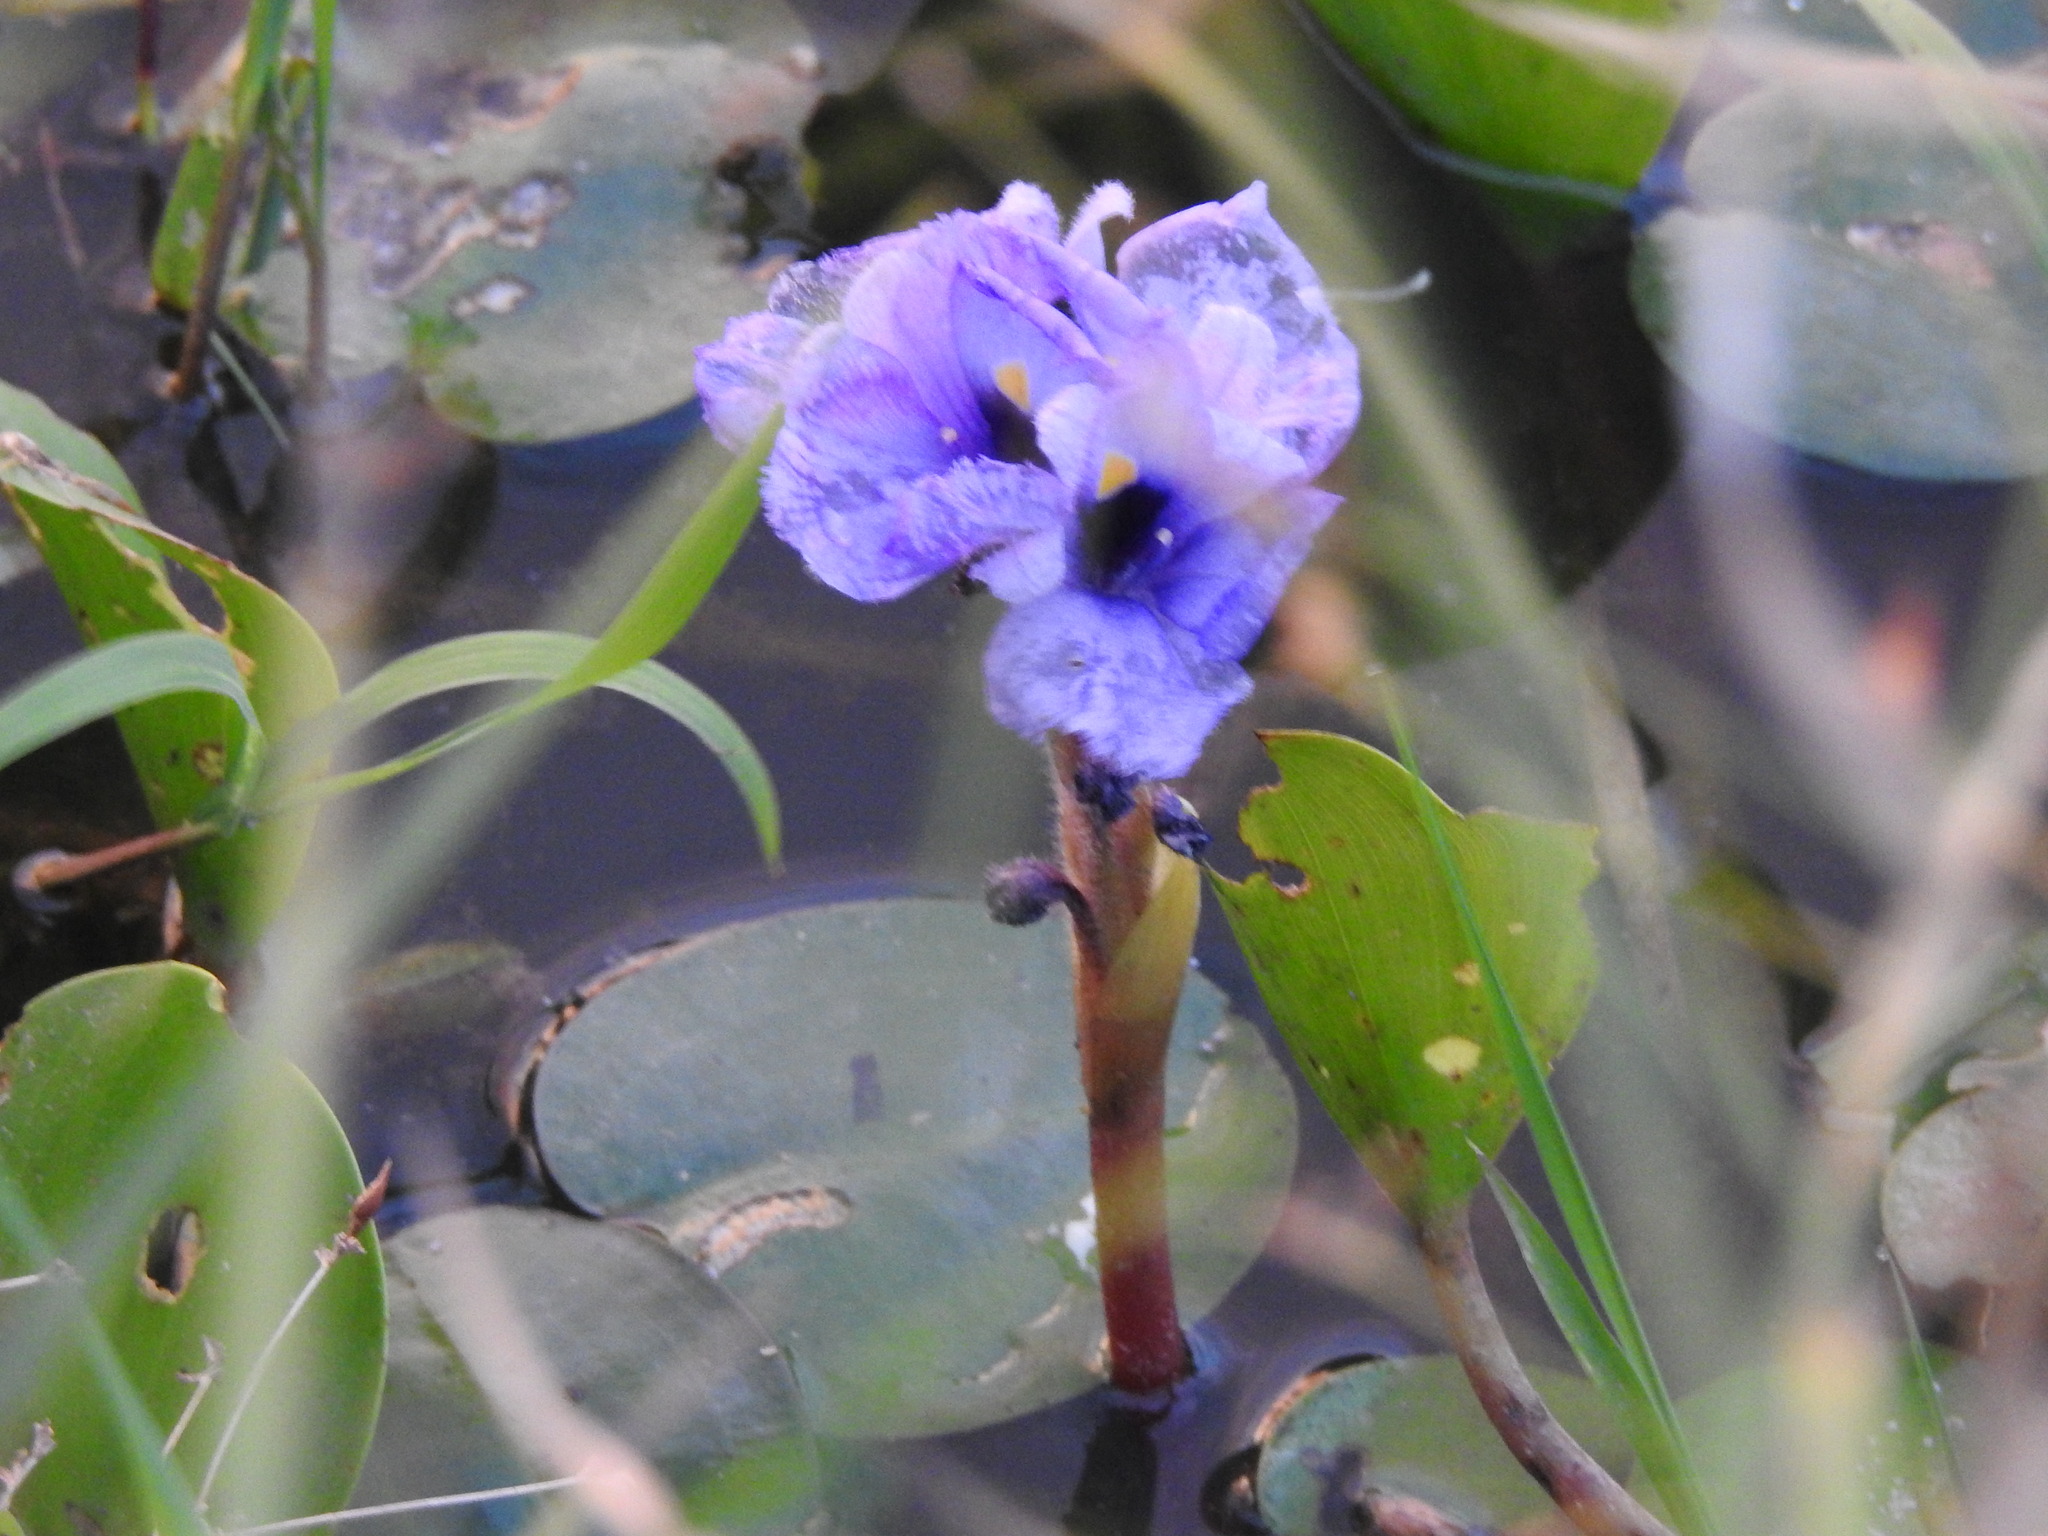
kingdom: Plantae
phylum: Tracheophyta
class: Liliopsida
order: Commelinales
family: Pontederiaceae
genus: Pontederia
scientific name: Pontederia azurea
